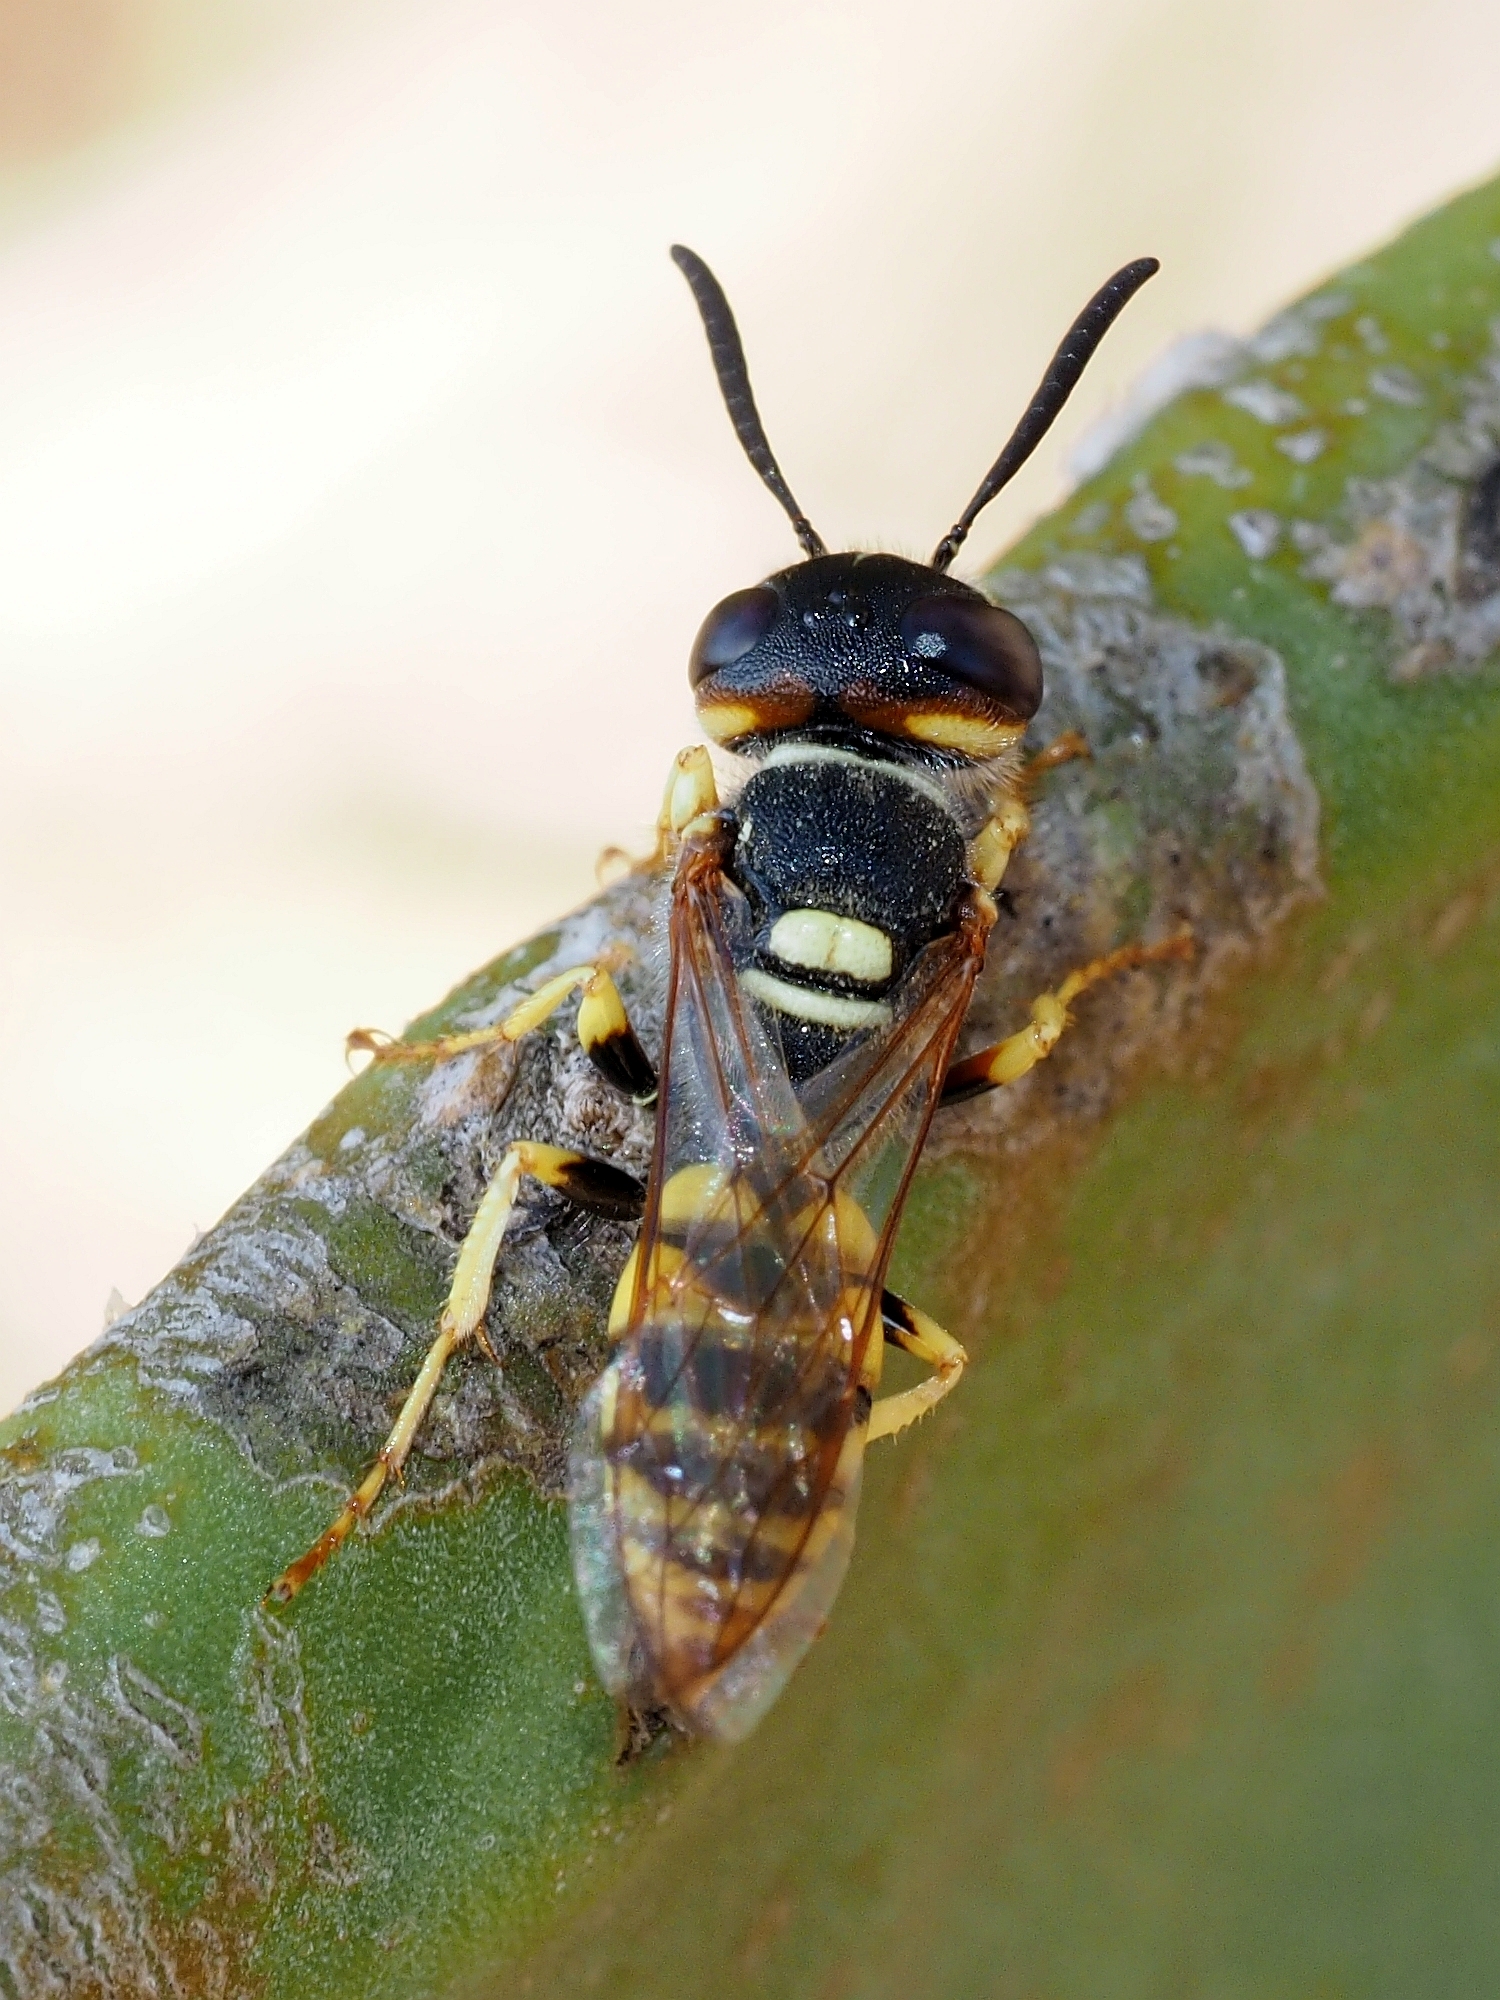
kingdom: Animalia
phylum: Arthropoda
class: Insecta
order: Hymenoptera
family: Crabronidae
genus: Philanthus
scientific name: Philanthus triangulum
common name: Bee wolf
